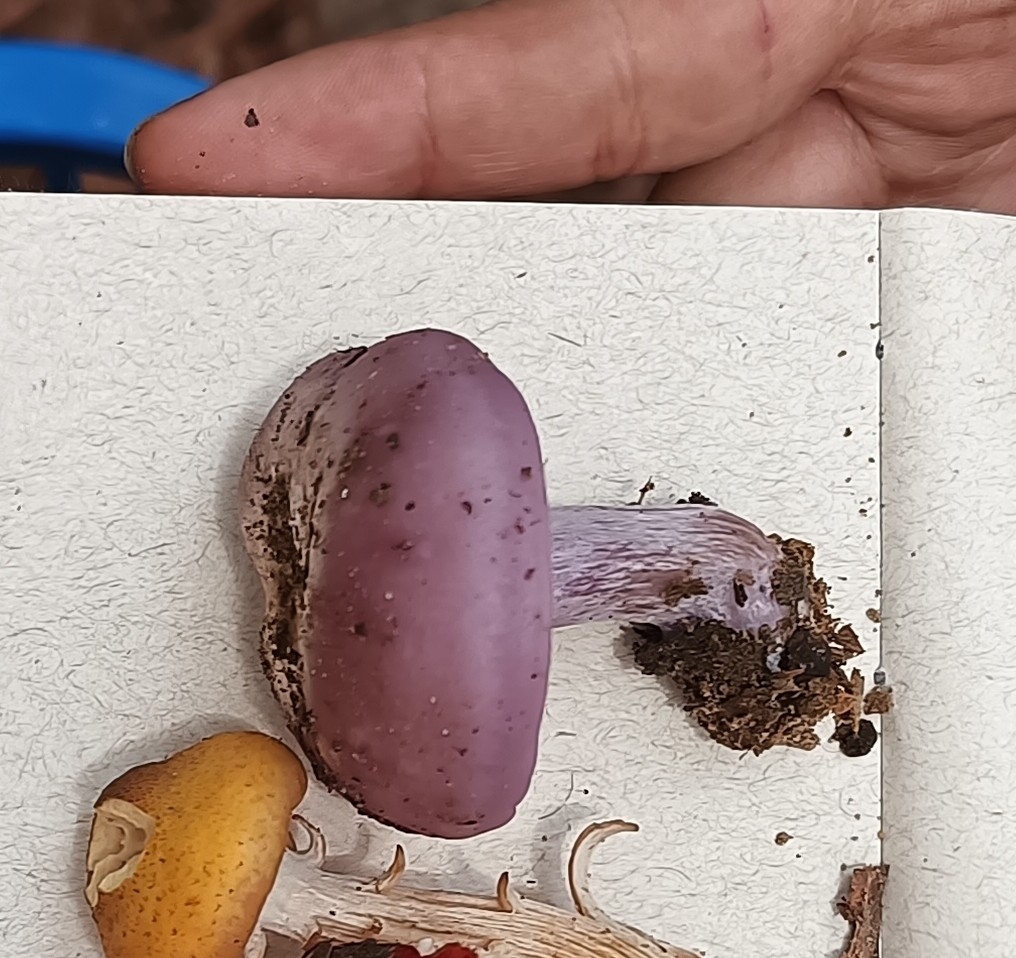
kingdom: Fungi
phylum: Basidiomycota
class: Agaricomycetes
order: Agaricales
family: Tricholomataceae
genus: Collybia
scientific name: Collybia
